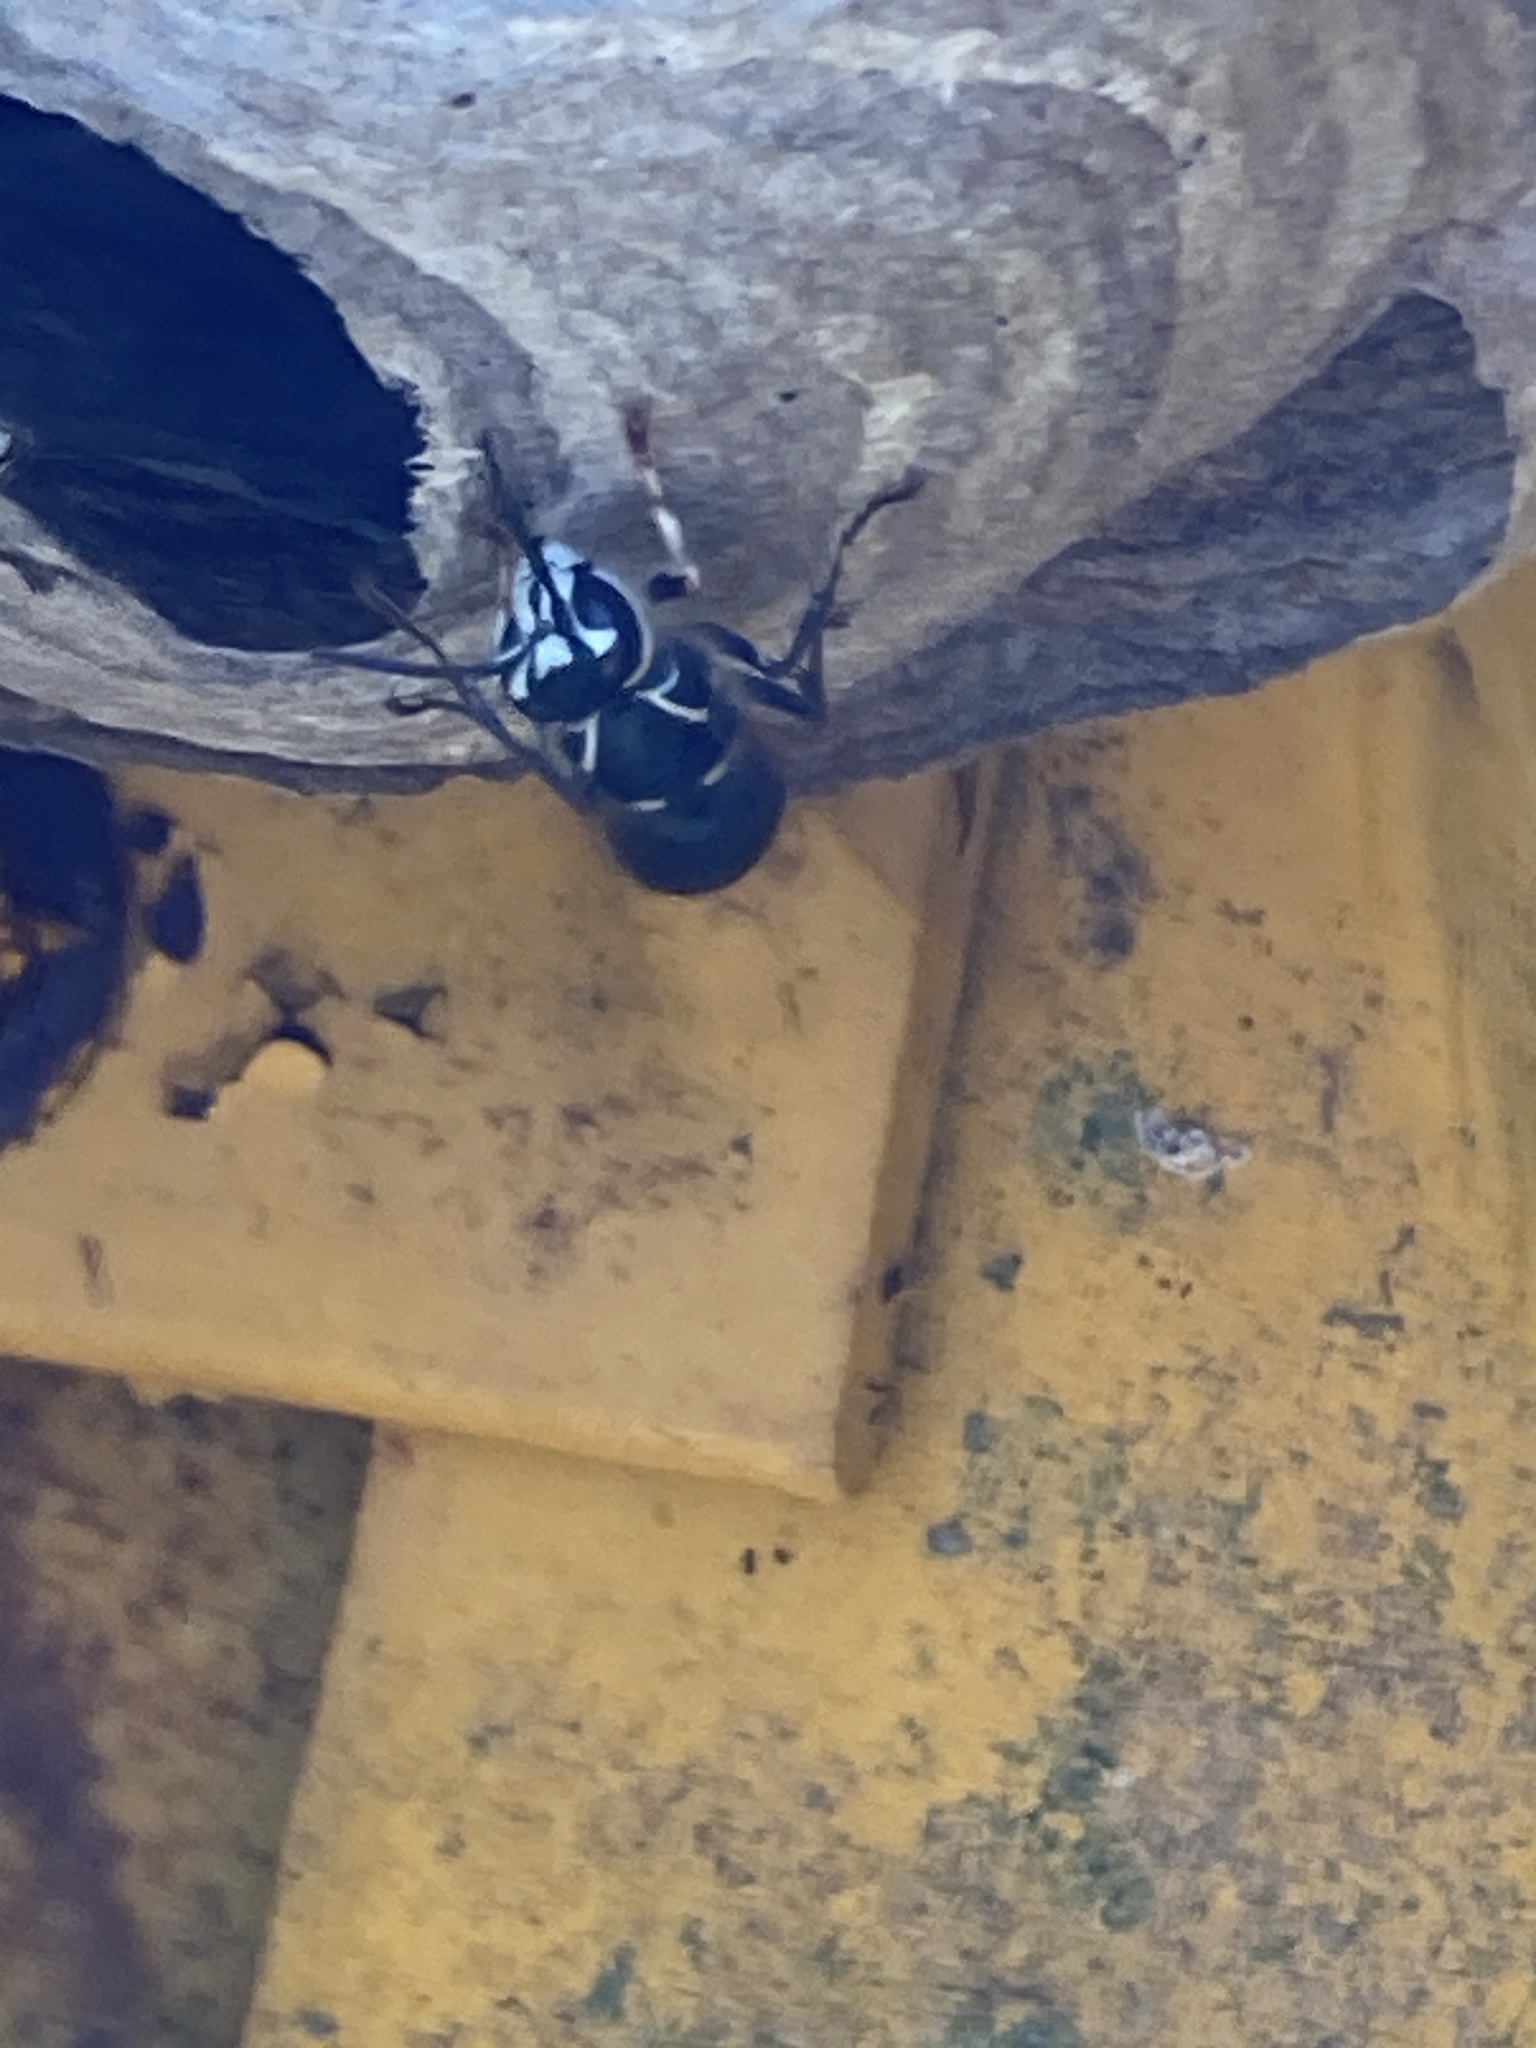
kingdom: Animalia
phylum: Arthropoda
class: Insecta
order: Hymenoptera
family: Vespidae
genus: Dolichovespula
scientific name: Dolichovespula maculata
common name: Bald-faced hornet
